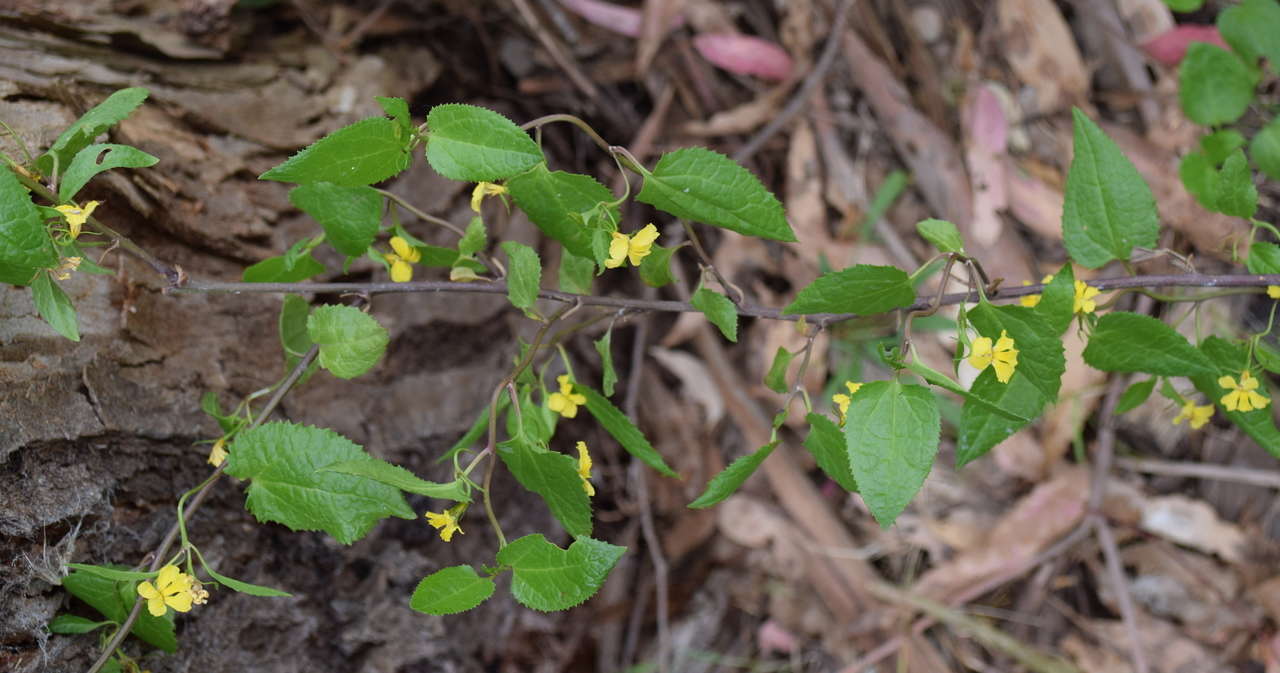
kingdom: Plantae
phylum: Tracheophyta
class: Magnoliopsida
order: Asterales
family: Goodeniaceae
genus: Goodenia
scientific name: Goodenia ovata
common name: Hop goodenia
